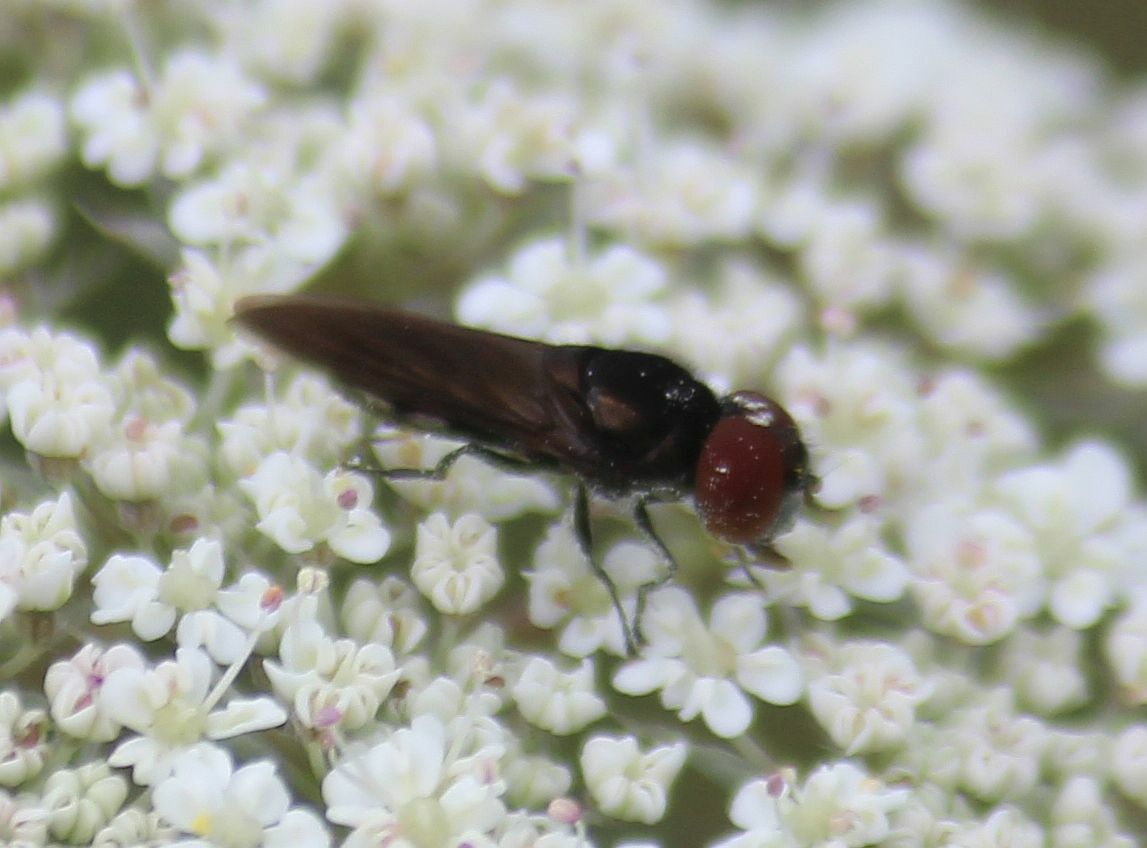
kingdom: Animalia
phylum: Arthropoda
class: Insecta
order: Diptera
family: Syrphidae
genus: Chrysogaster
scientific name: Chrysogaster solstitialis
